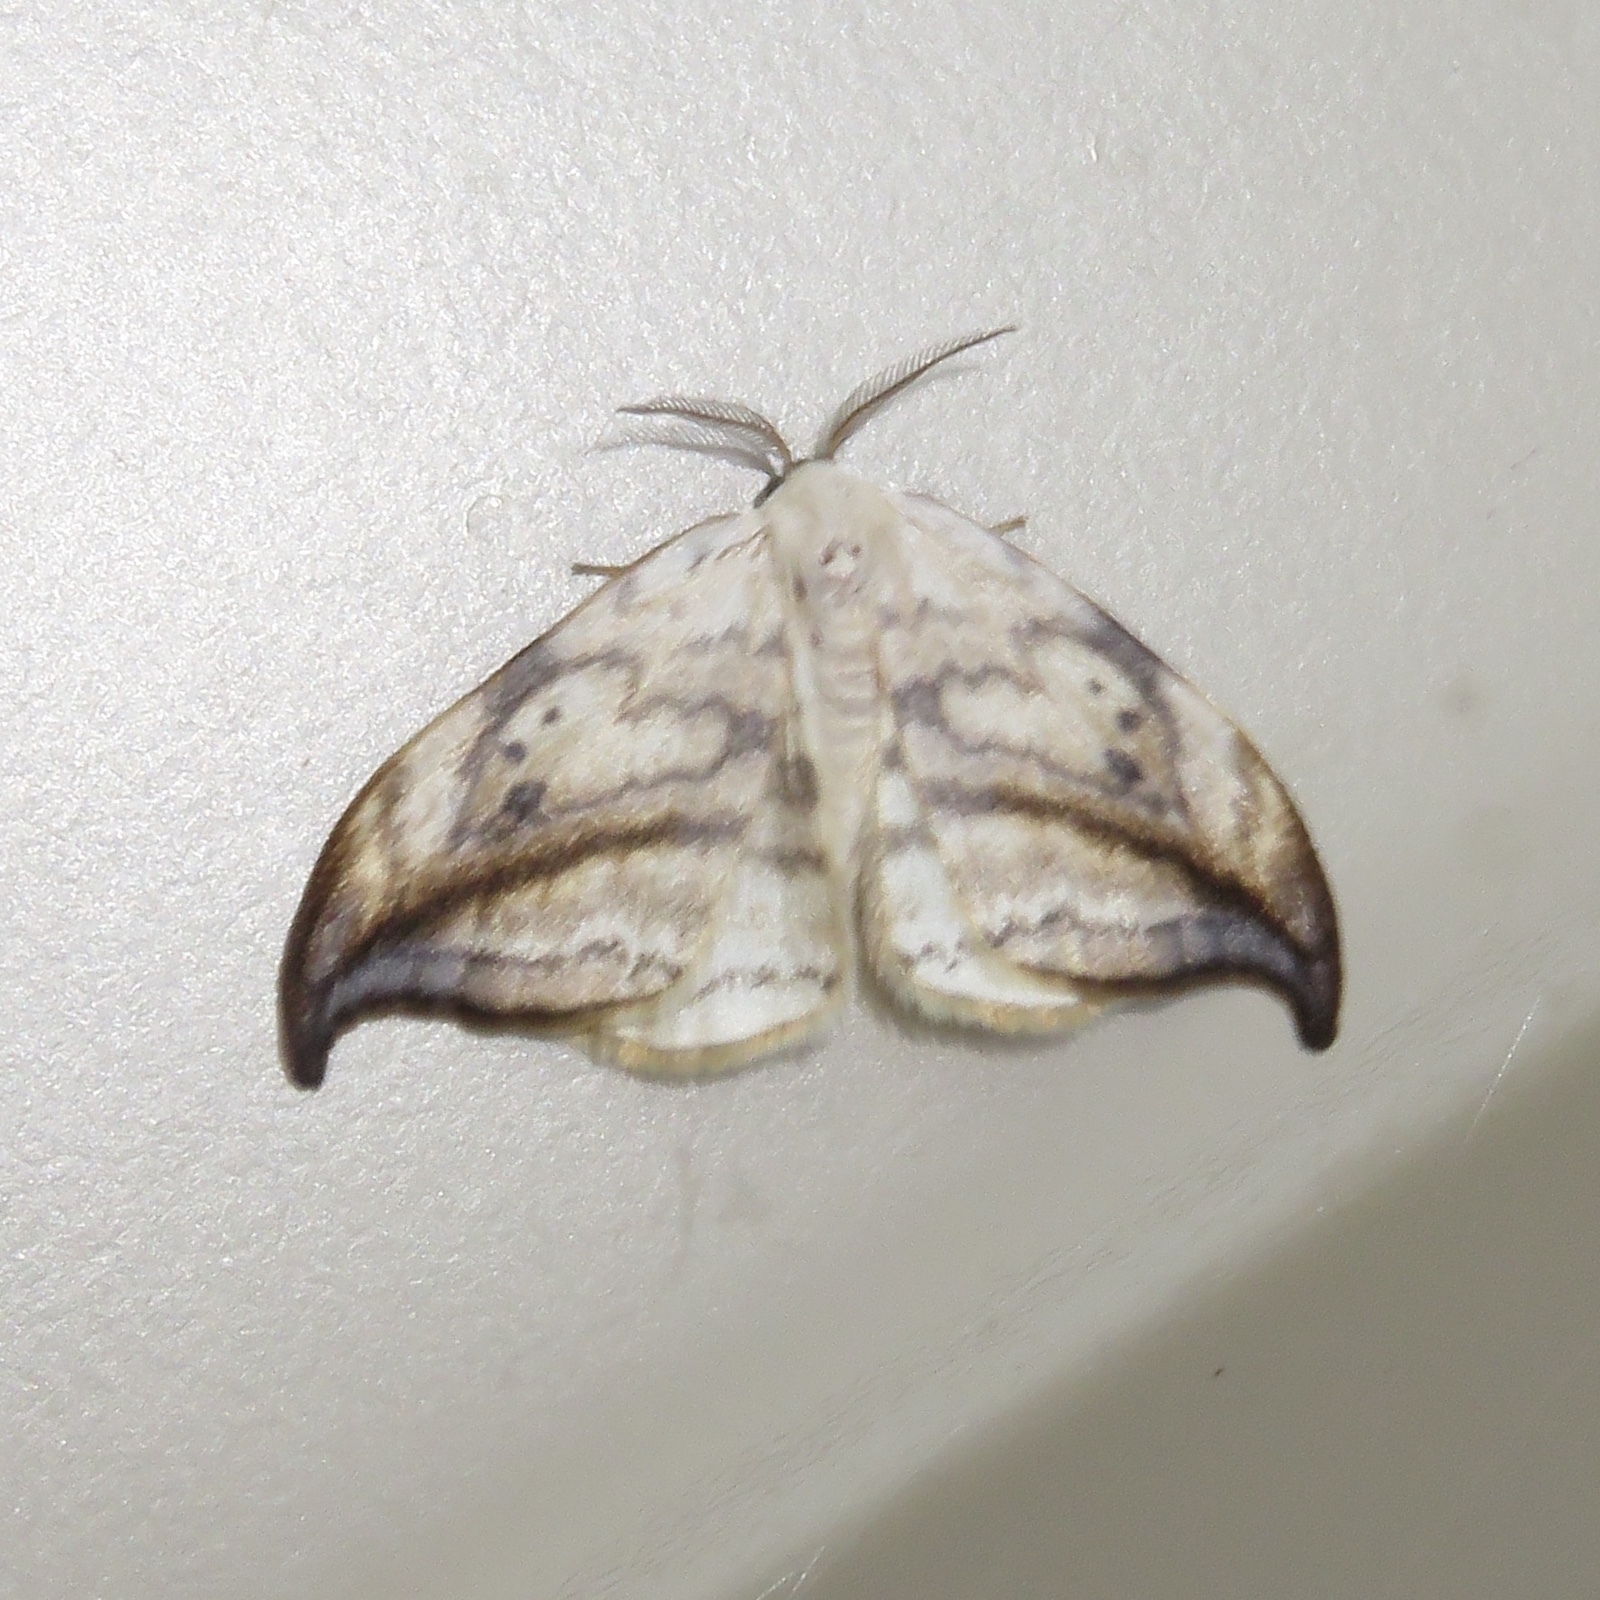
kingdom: Animalia
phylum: Arthropoda
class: Insecta
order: Lepidoptera
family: Drepanidae
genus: Drepana
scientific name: Drepana arcuata
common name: Arched hooktip moth
